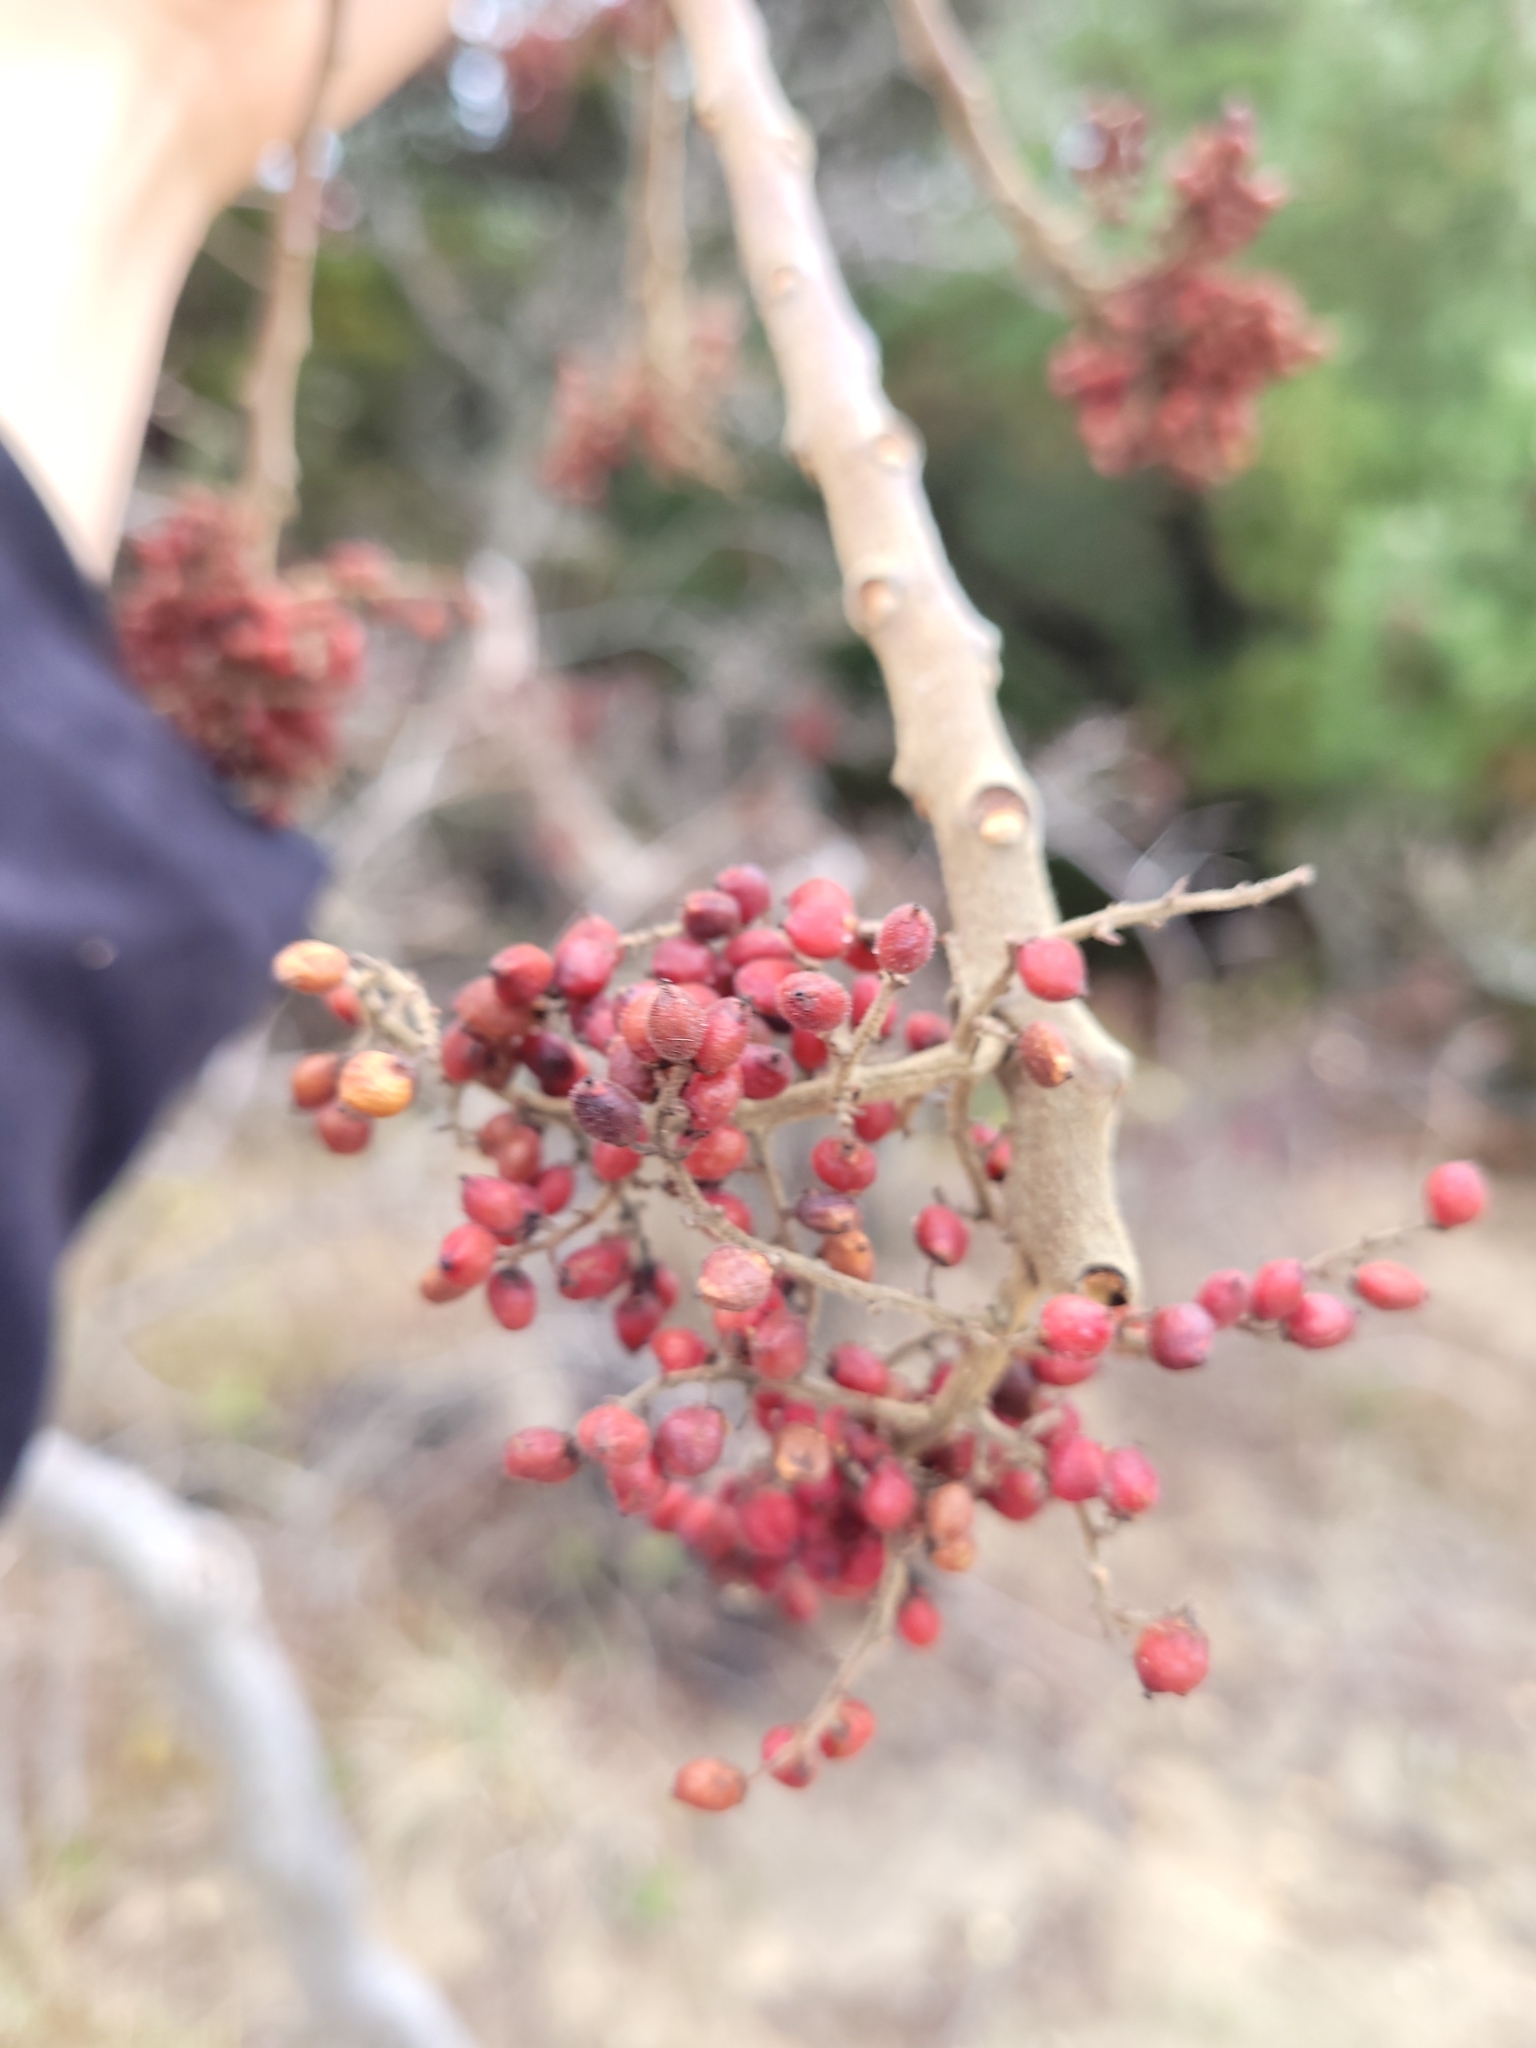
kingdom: Plantae
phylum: Tracheophyta
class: Magnoliopsida
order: Sapindales
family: Anacardiaceae
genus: Rhus
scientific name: Rhus copallina
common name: Shining sumac
